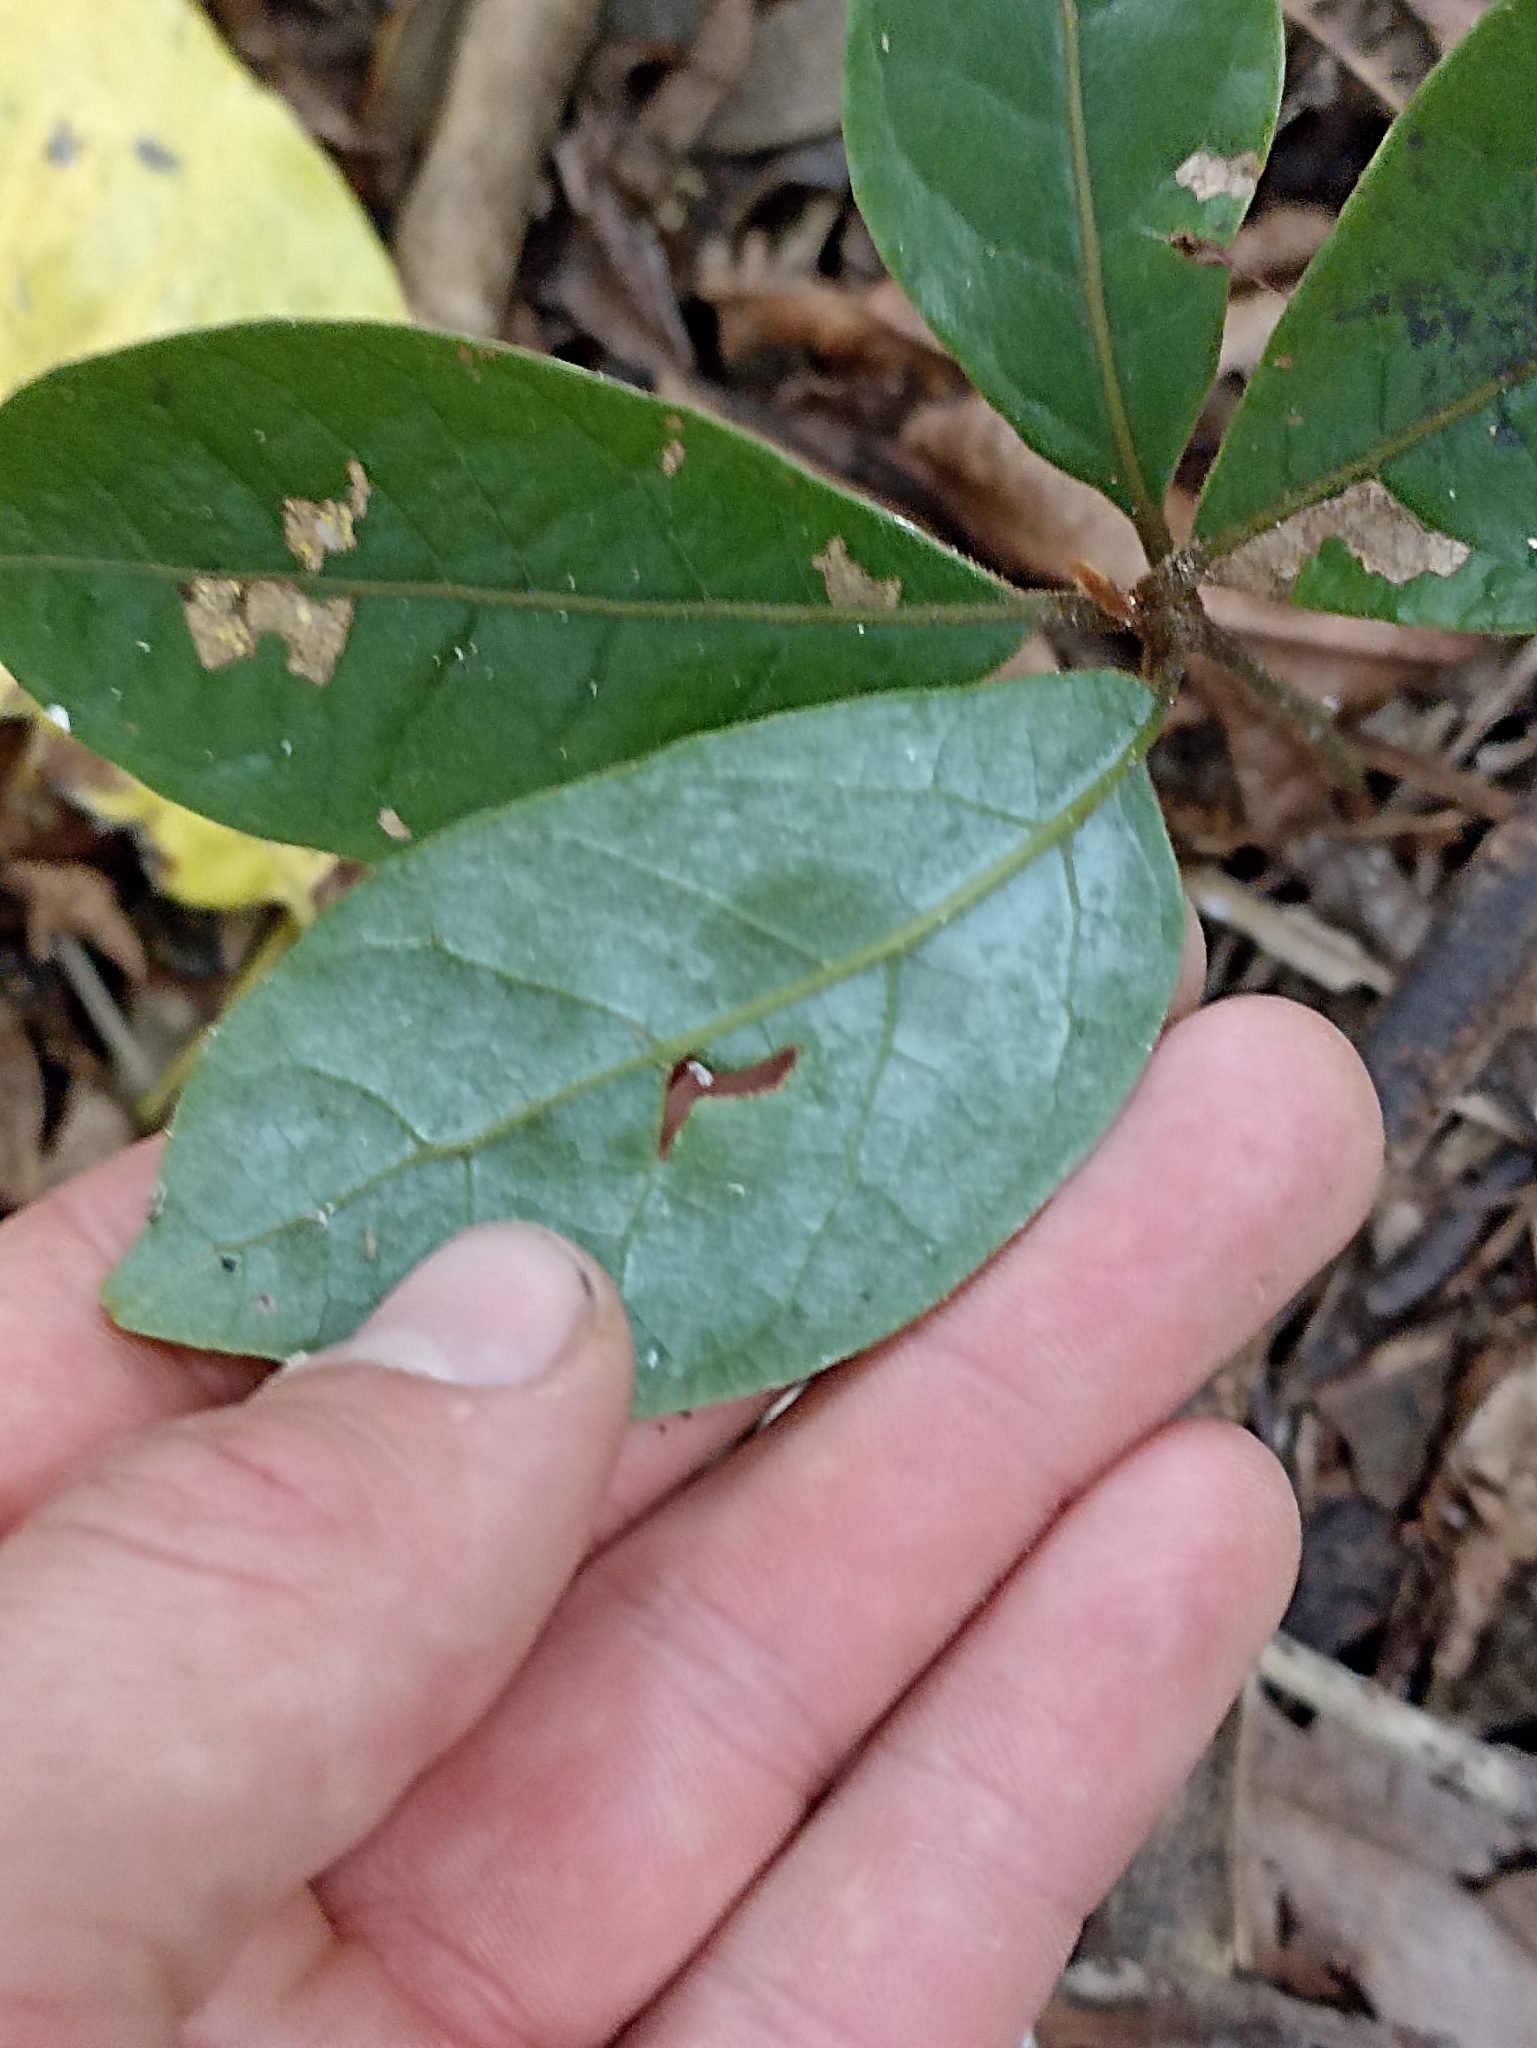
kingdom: Plantae
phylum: Tracheophyta
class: Magnoliopsida
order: Laurales
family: Lauraceae
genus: Beilschmiedia
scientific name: Beilschmiedia tarairi
